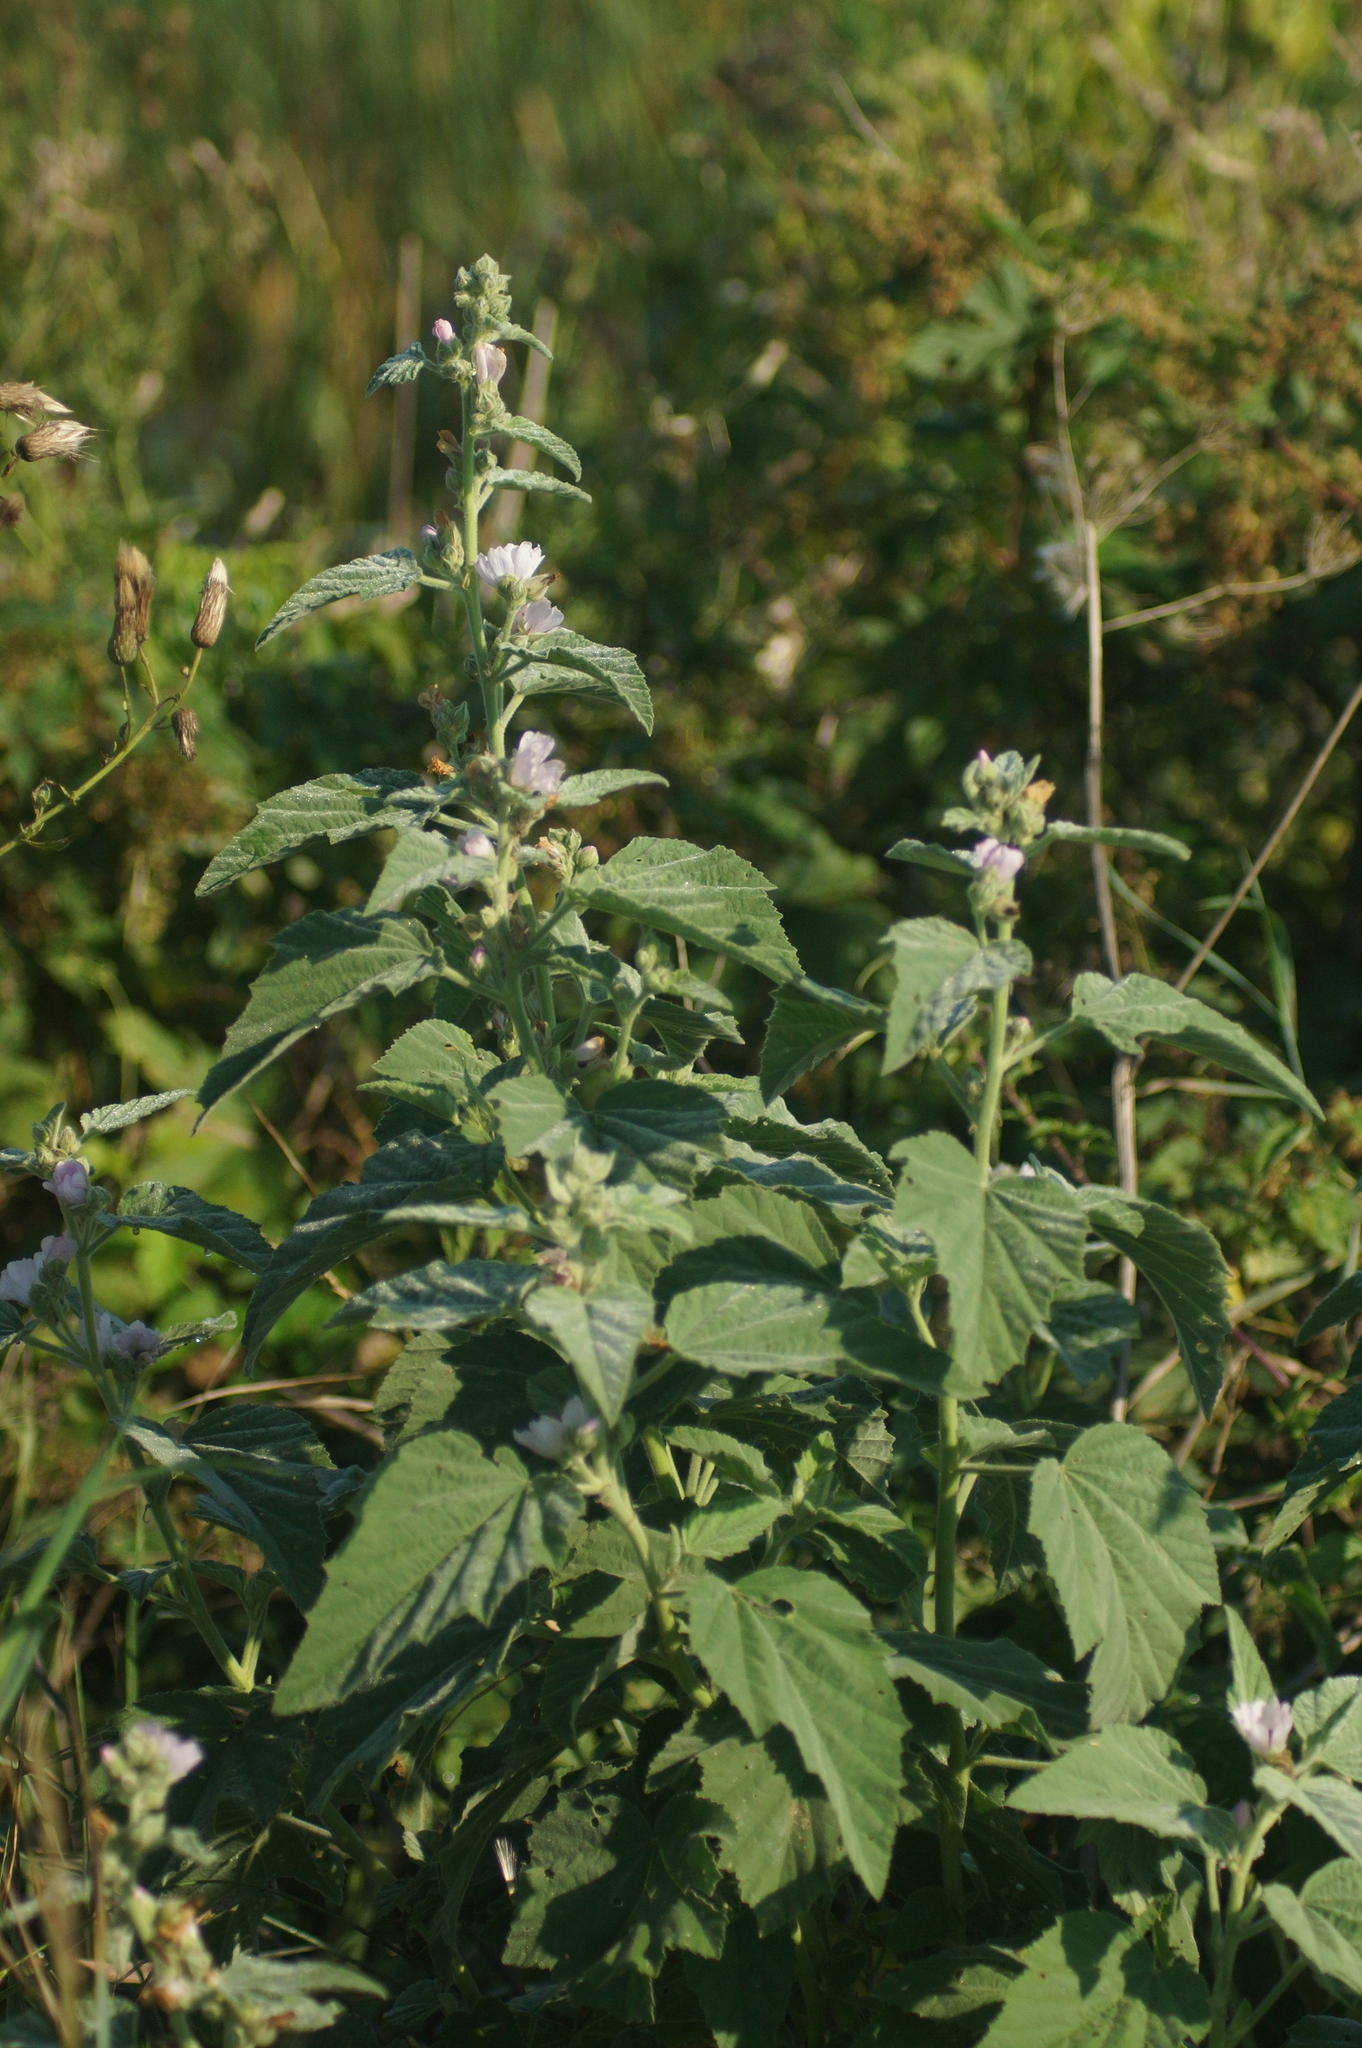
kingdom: Plantae
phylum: Tracheophyta
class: Magnoliopsida
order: Malvales
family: Malvaceae
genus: Althaea
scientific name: Althaea officinalis
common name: Marsh-mallow
